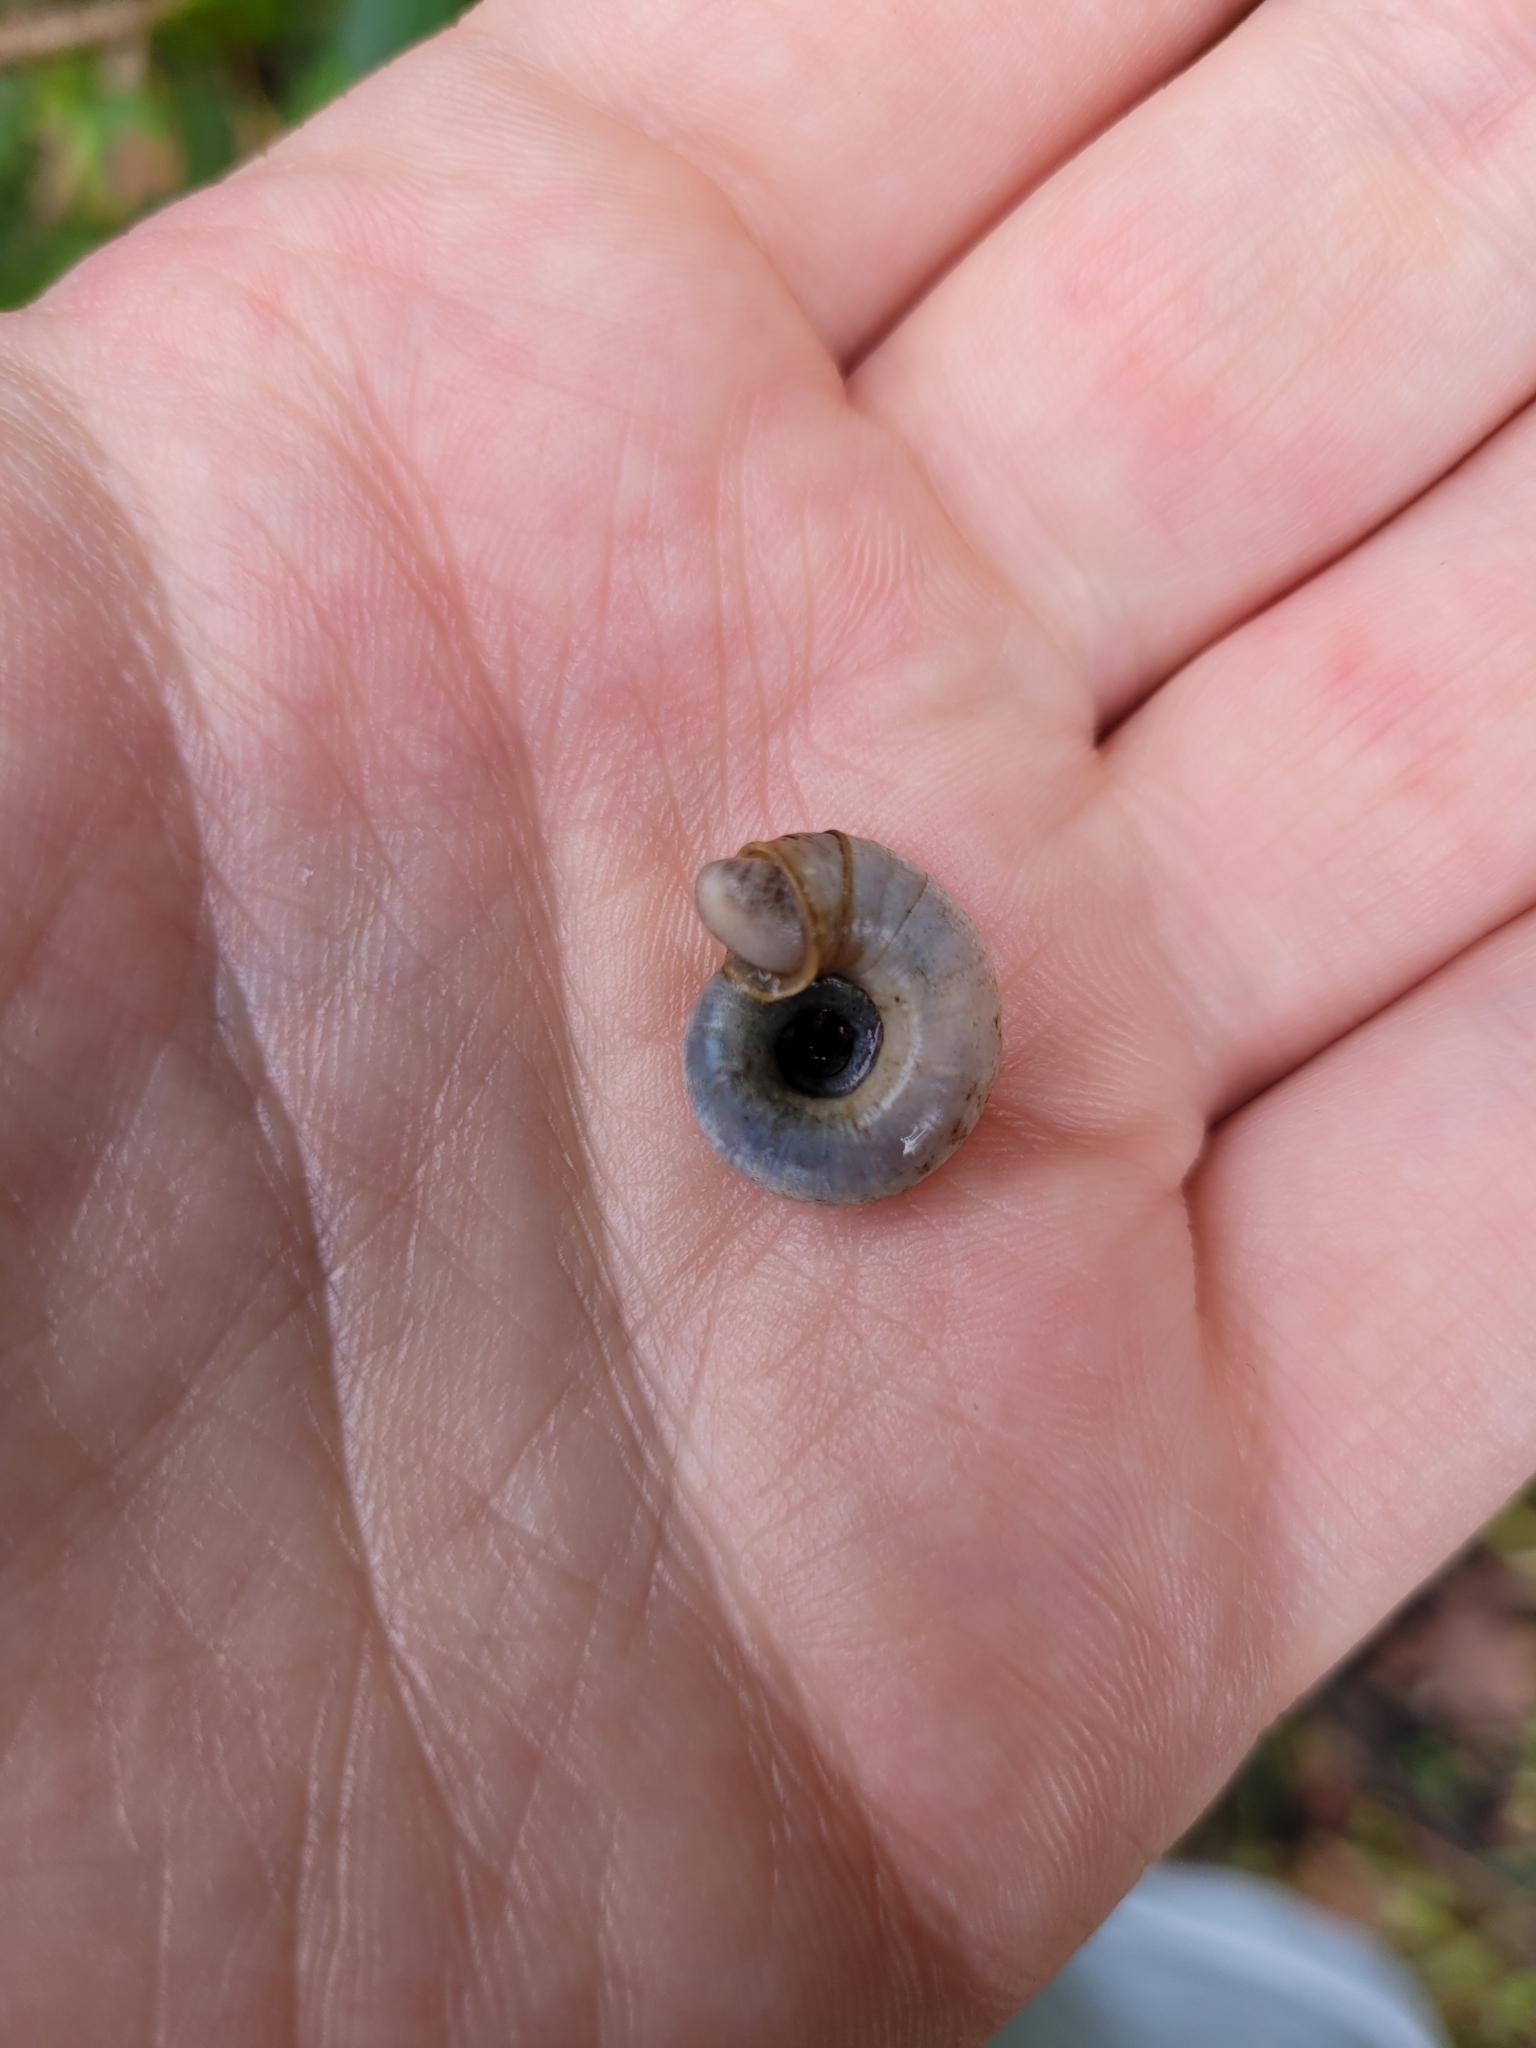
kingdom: Animalia
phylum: Mollusca
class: Gastropoda
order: Stylommatophora
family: Haplotrematidae
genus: Haplotrema
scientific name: Haplotrema concavum
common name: Gray-foot lancetooth
